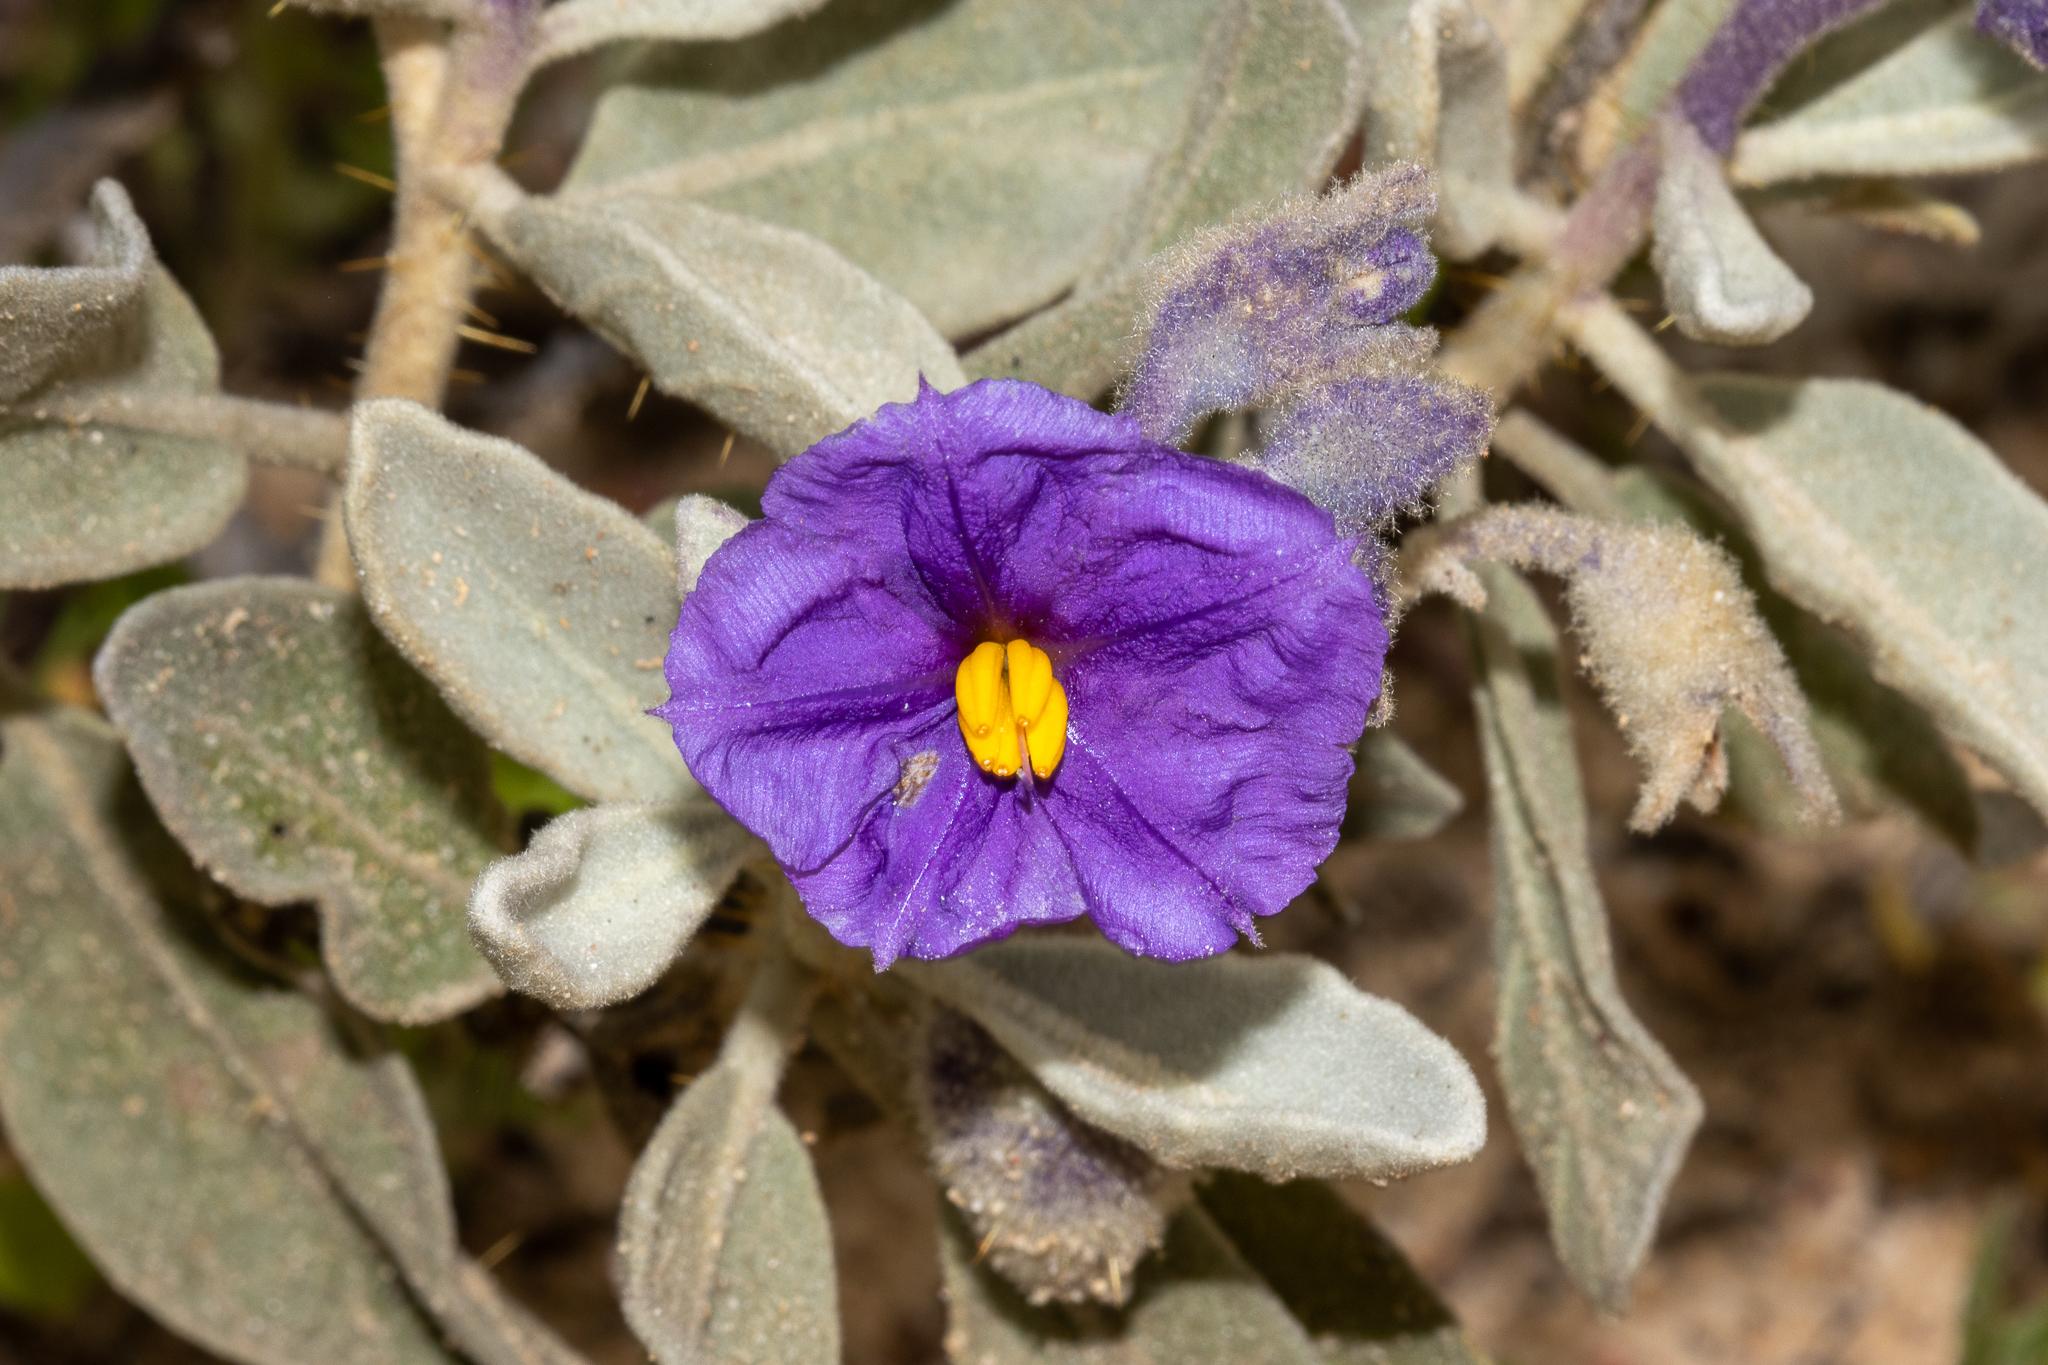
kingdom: Plantae
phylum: Tracheophyta
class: Magnoliopsida
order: Solanales
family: Solanaceae
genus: Solanum
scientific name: Solanum lasiophyllum
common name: Flannelbush
